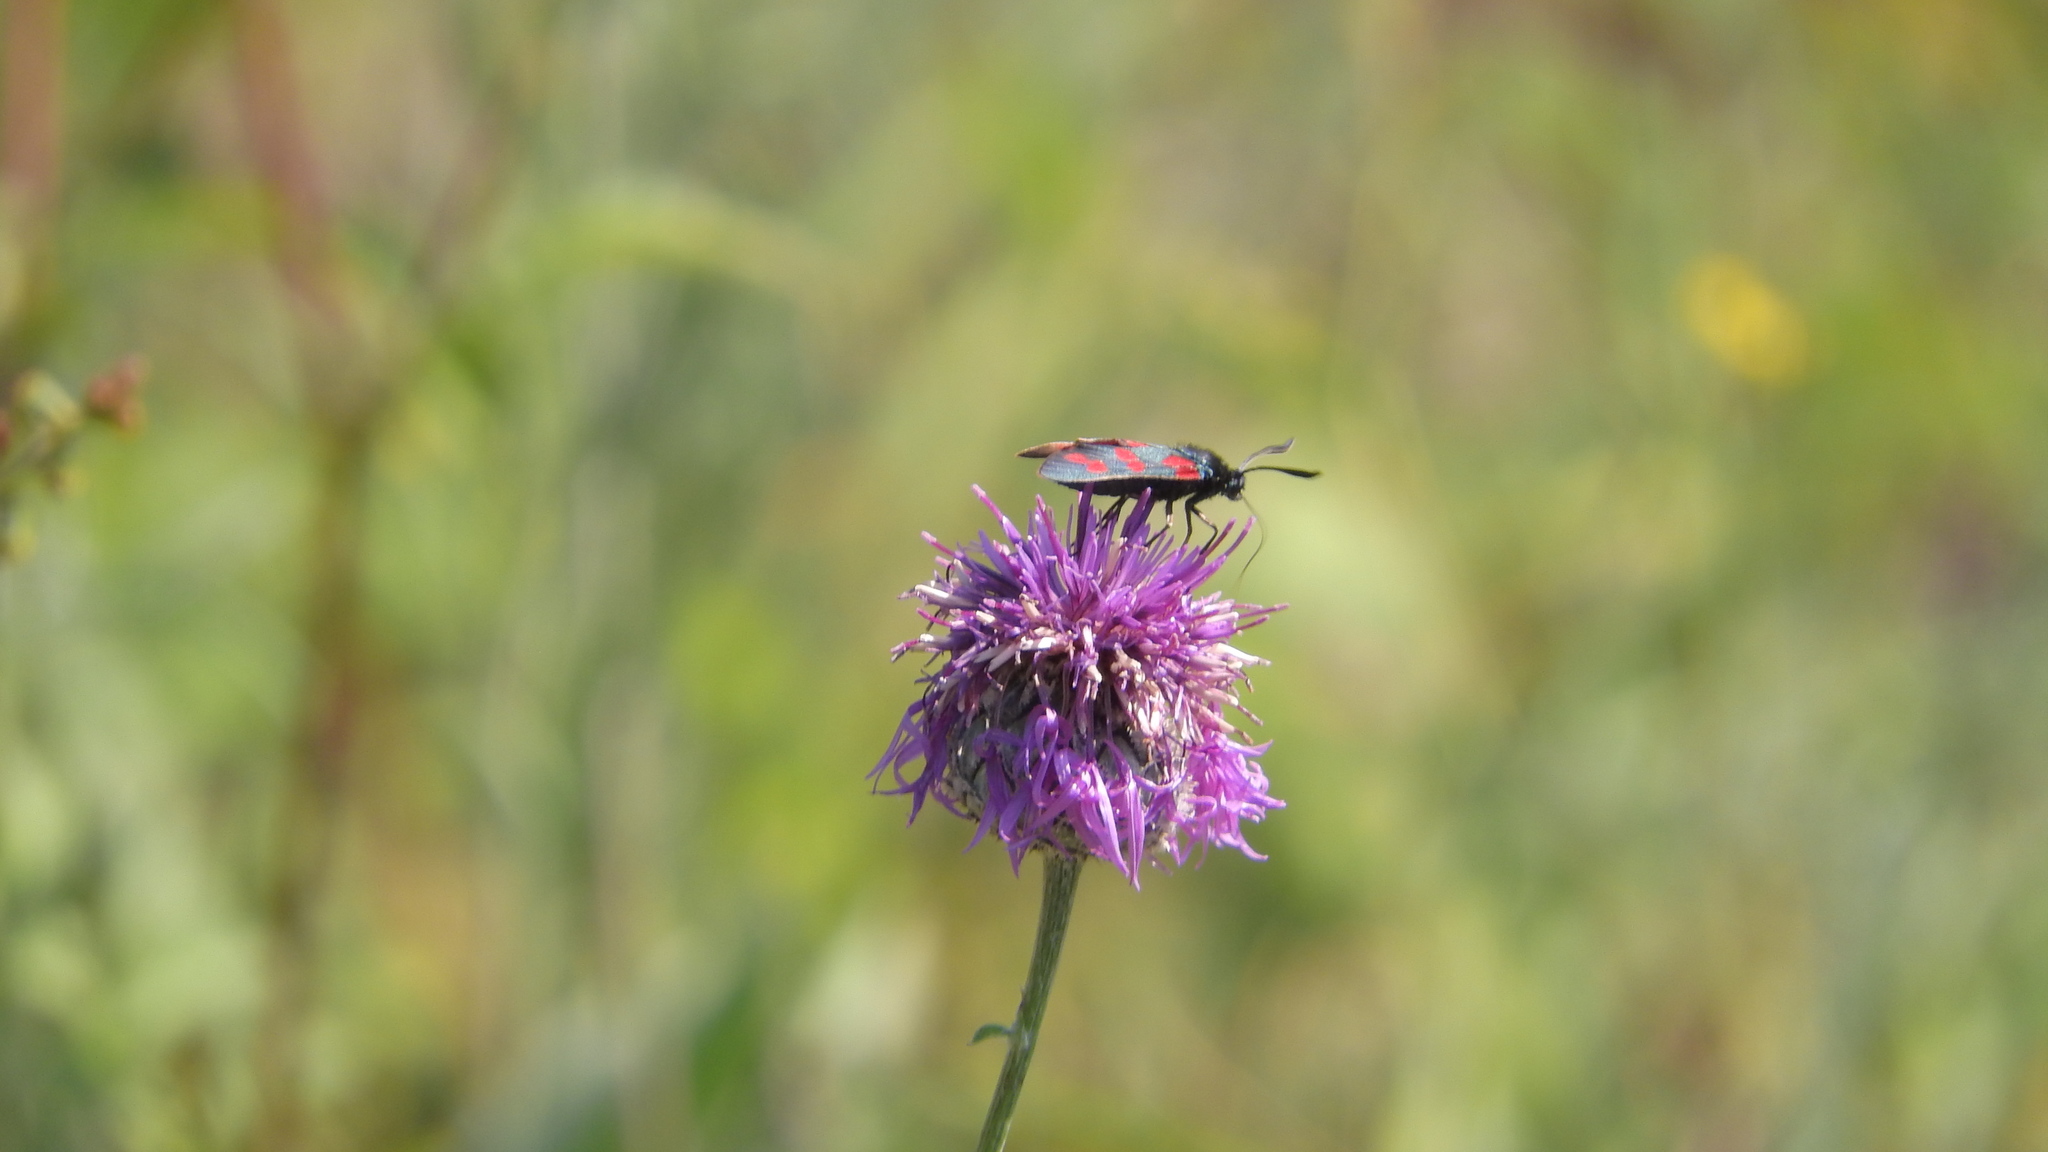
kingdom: Animalia
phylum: Arthropoda
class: Insecta
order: Lepidoptera
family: Zygaenidae
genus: Zygaena
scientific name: Zygaena filipendulae
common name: Six-spot burnet
